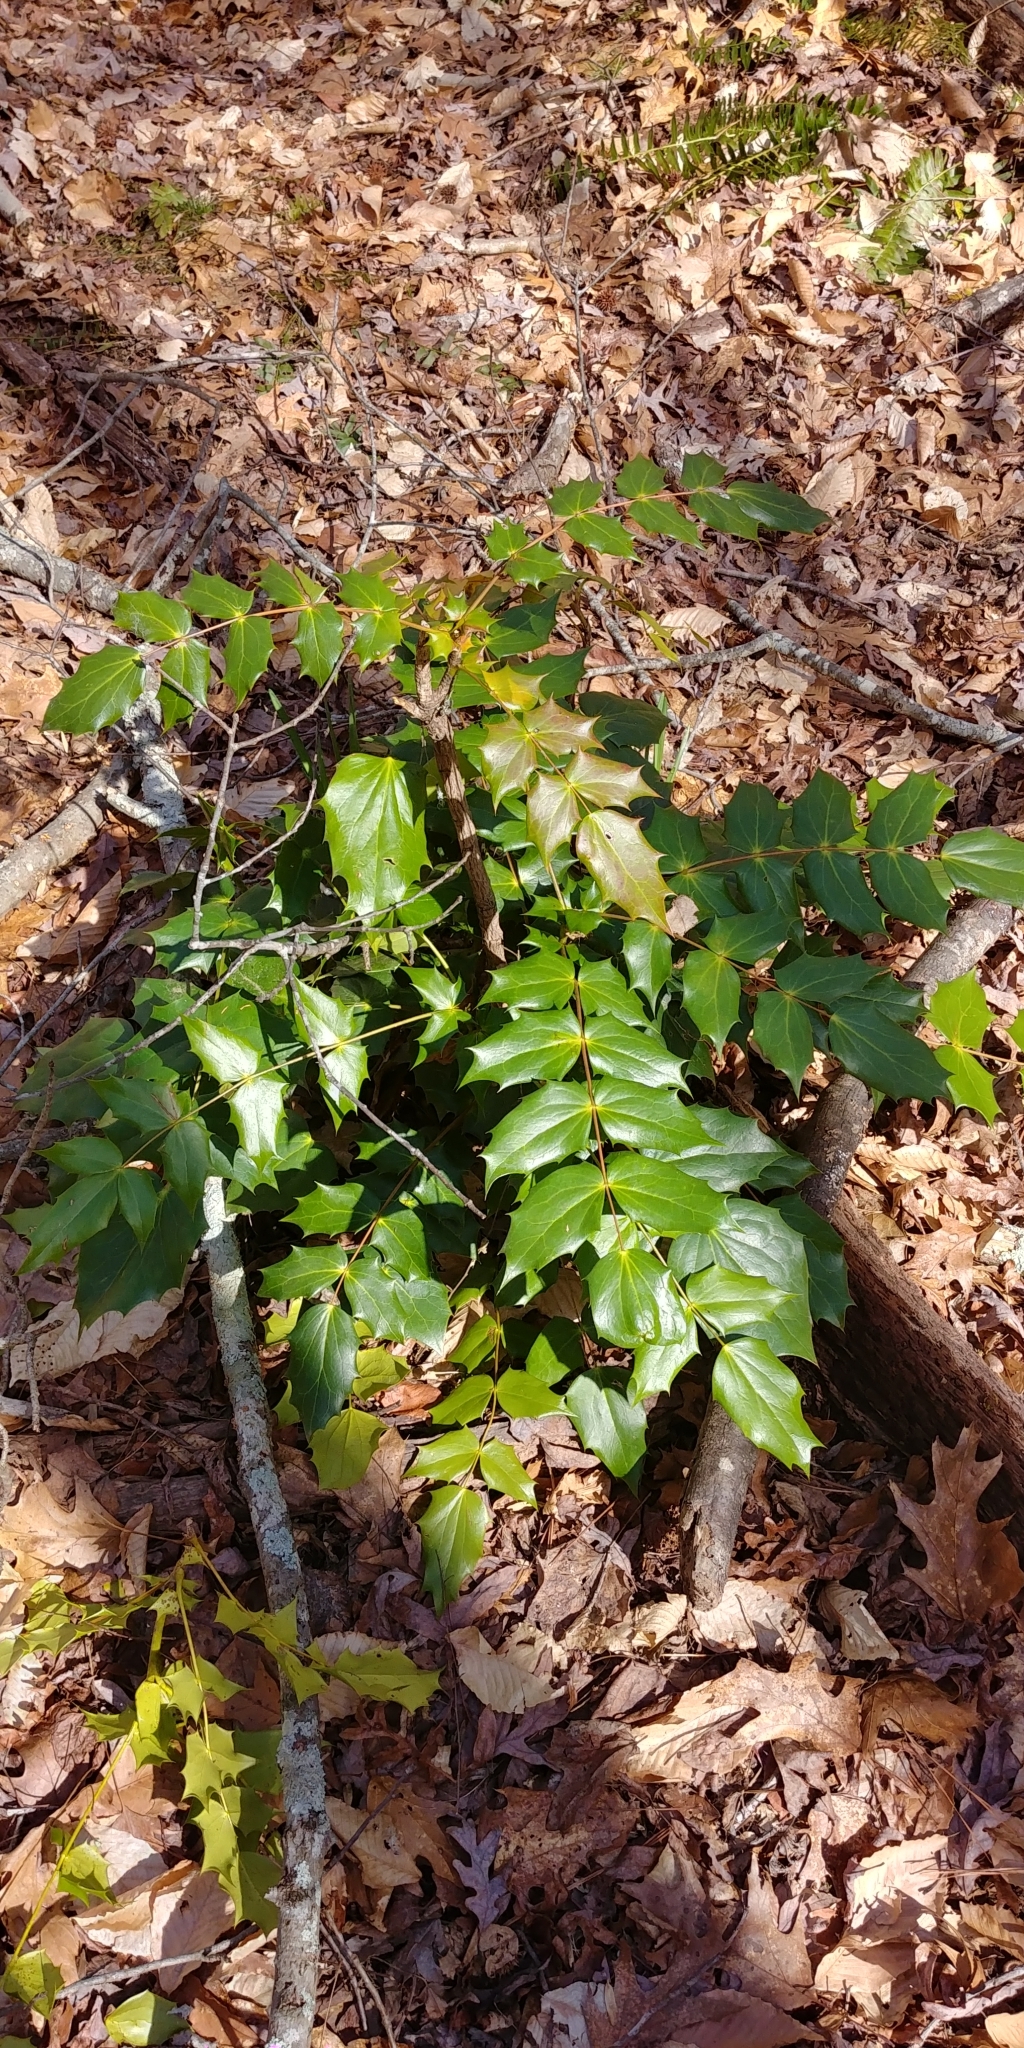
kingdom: Plantae
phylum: Tracheophyta
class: Magnoliopsida
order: Ranunculales
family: Berberidaceae
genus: Mahonia
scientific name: Mahonia bealei
